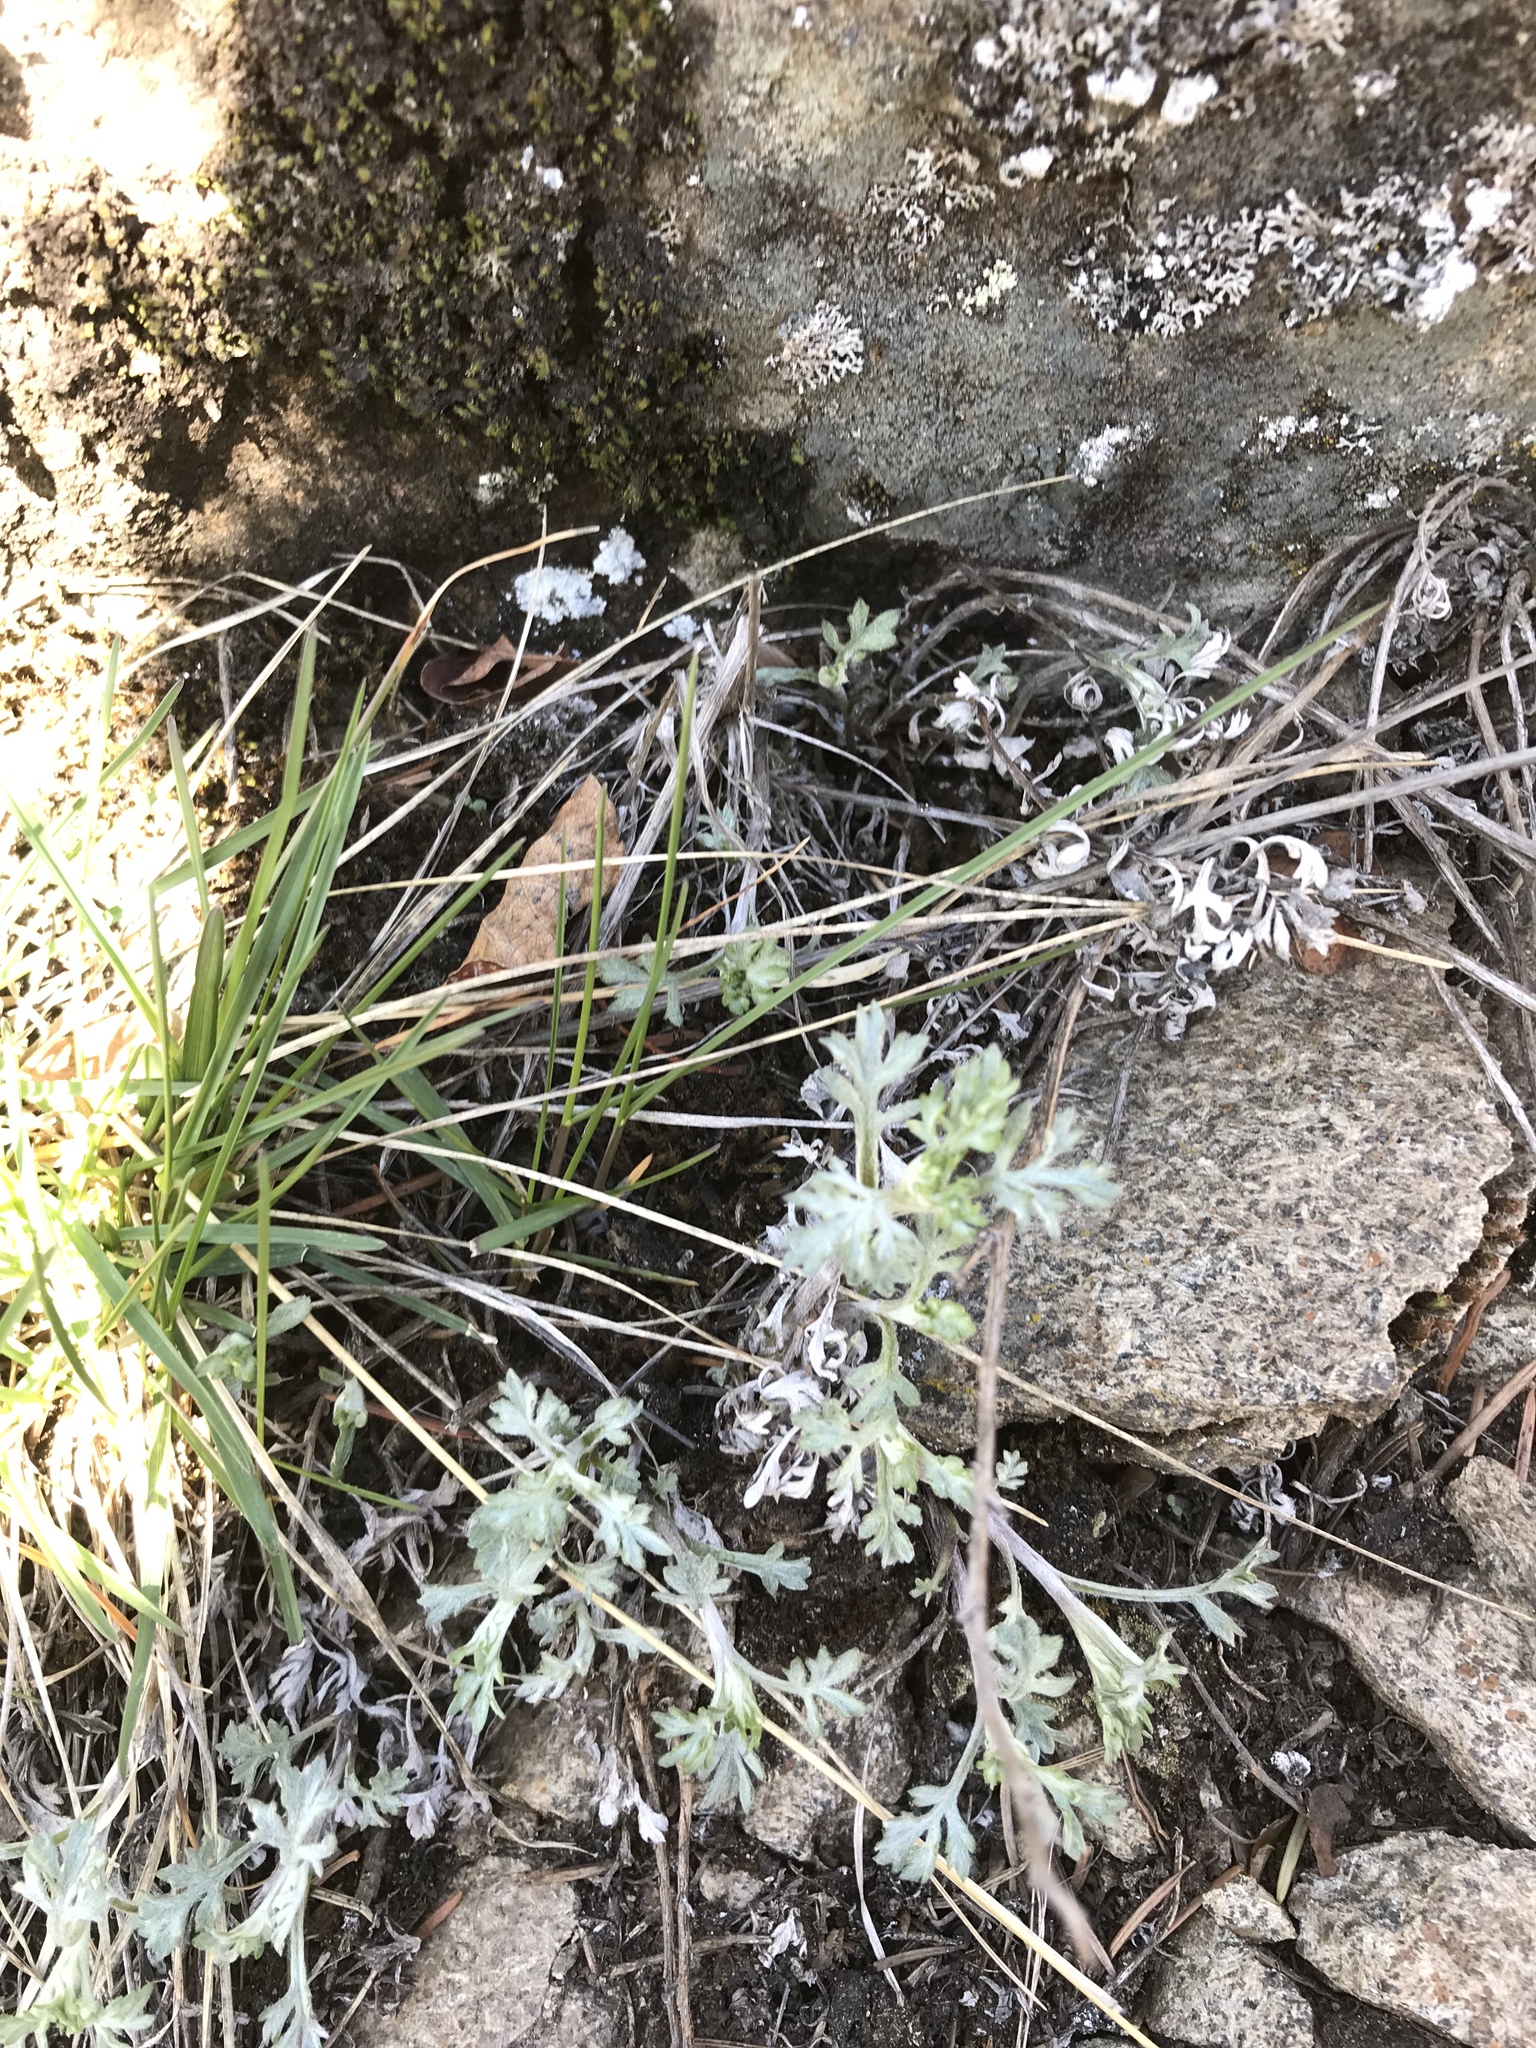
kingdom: Plantae
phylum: Tracheophyta
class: Magnoliopsida
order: Asterales
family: Asteraceae
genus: Artemisia
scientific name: Artemisia frigida
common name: Prairie sagewort
